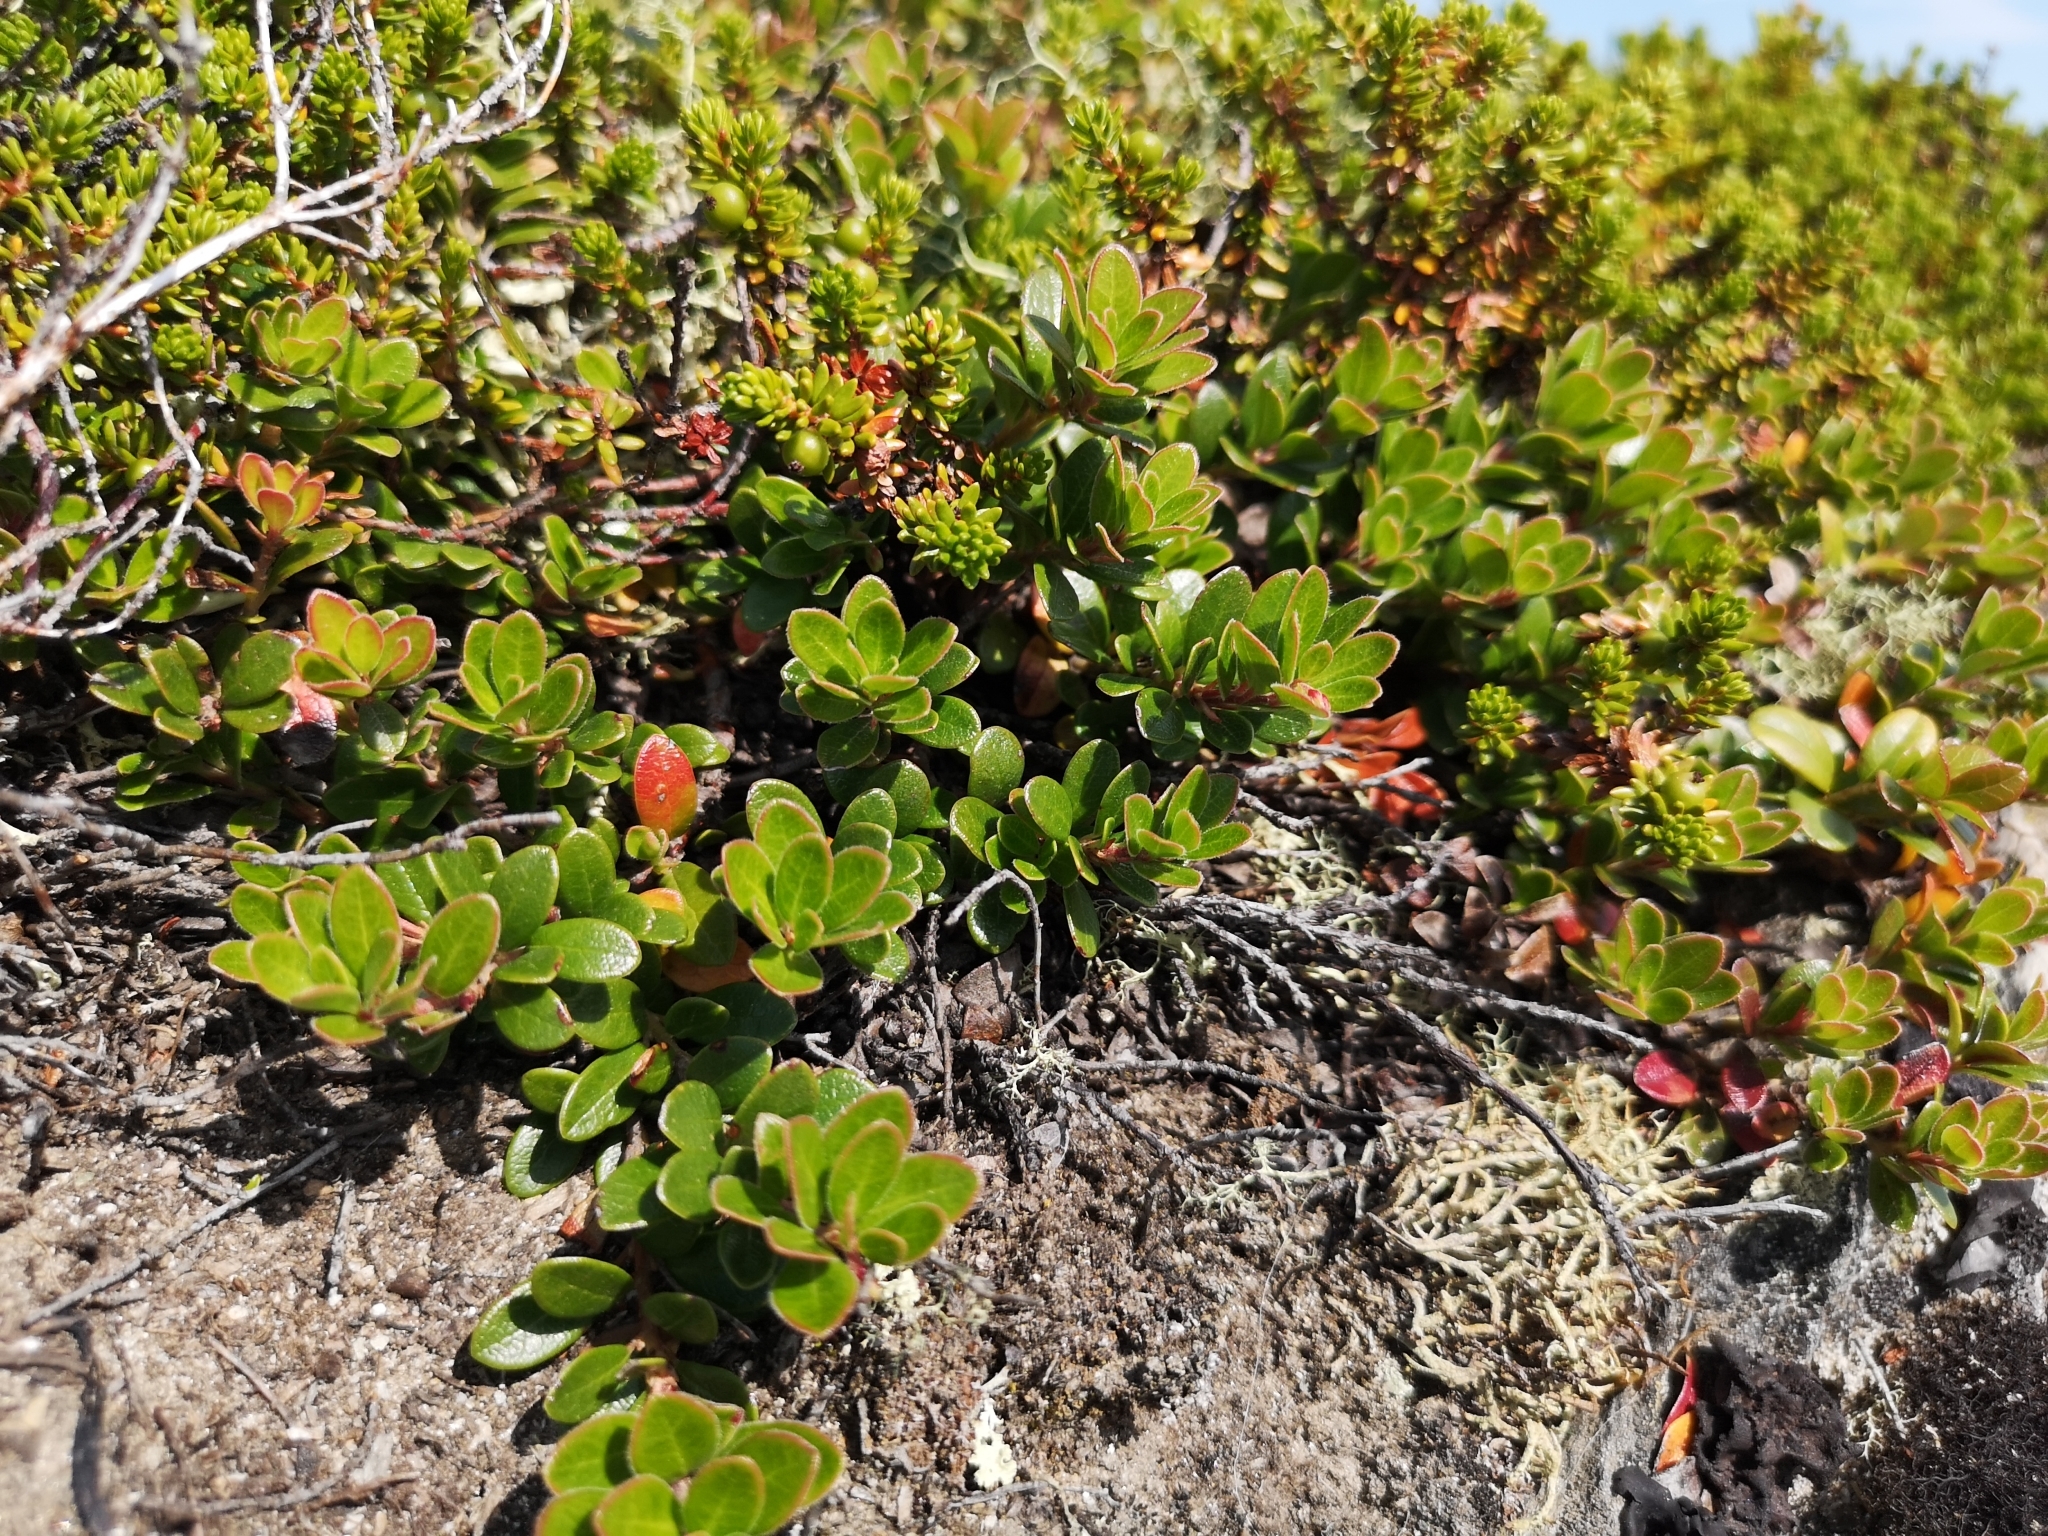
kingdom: Plantae
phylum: Tracheophyta
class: Magnoliopsida
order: Ericales
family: Ericaceae
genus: Arctostaphylos
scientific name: Arctostaphylos uva-ursi
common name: Bearberry
